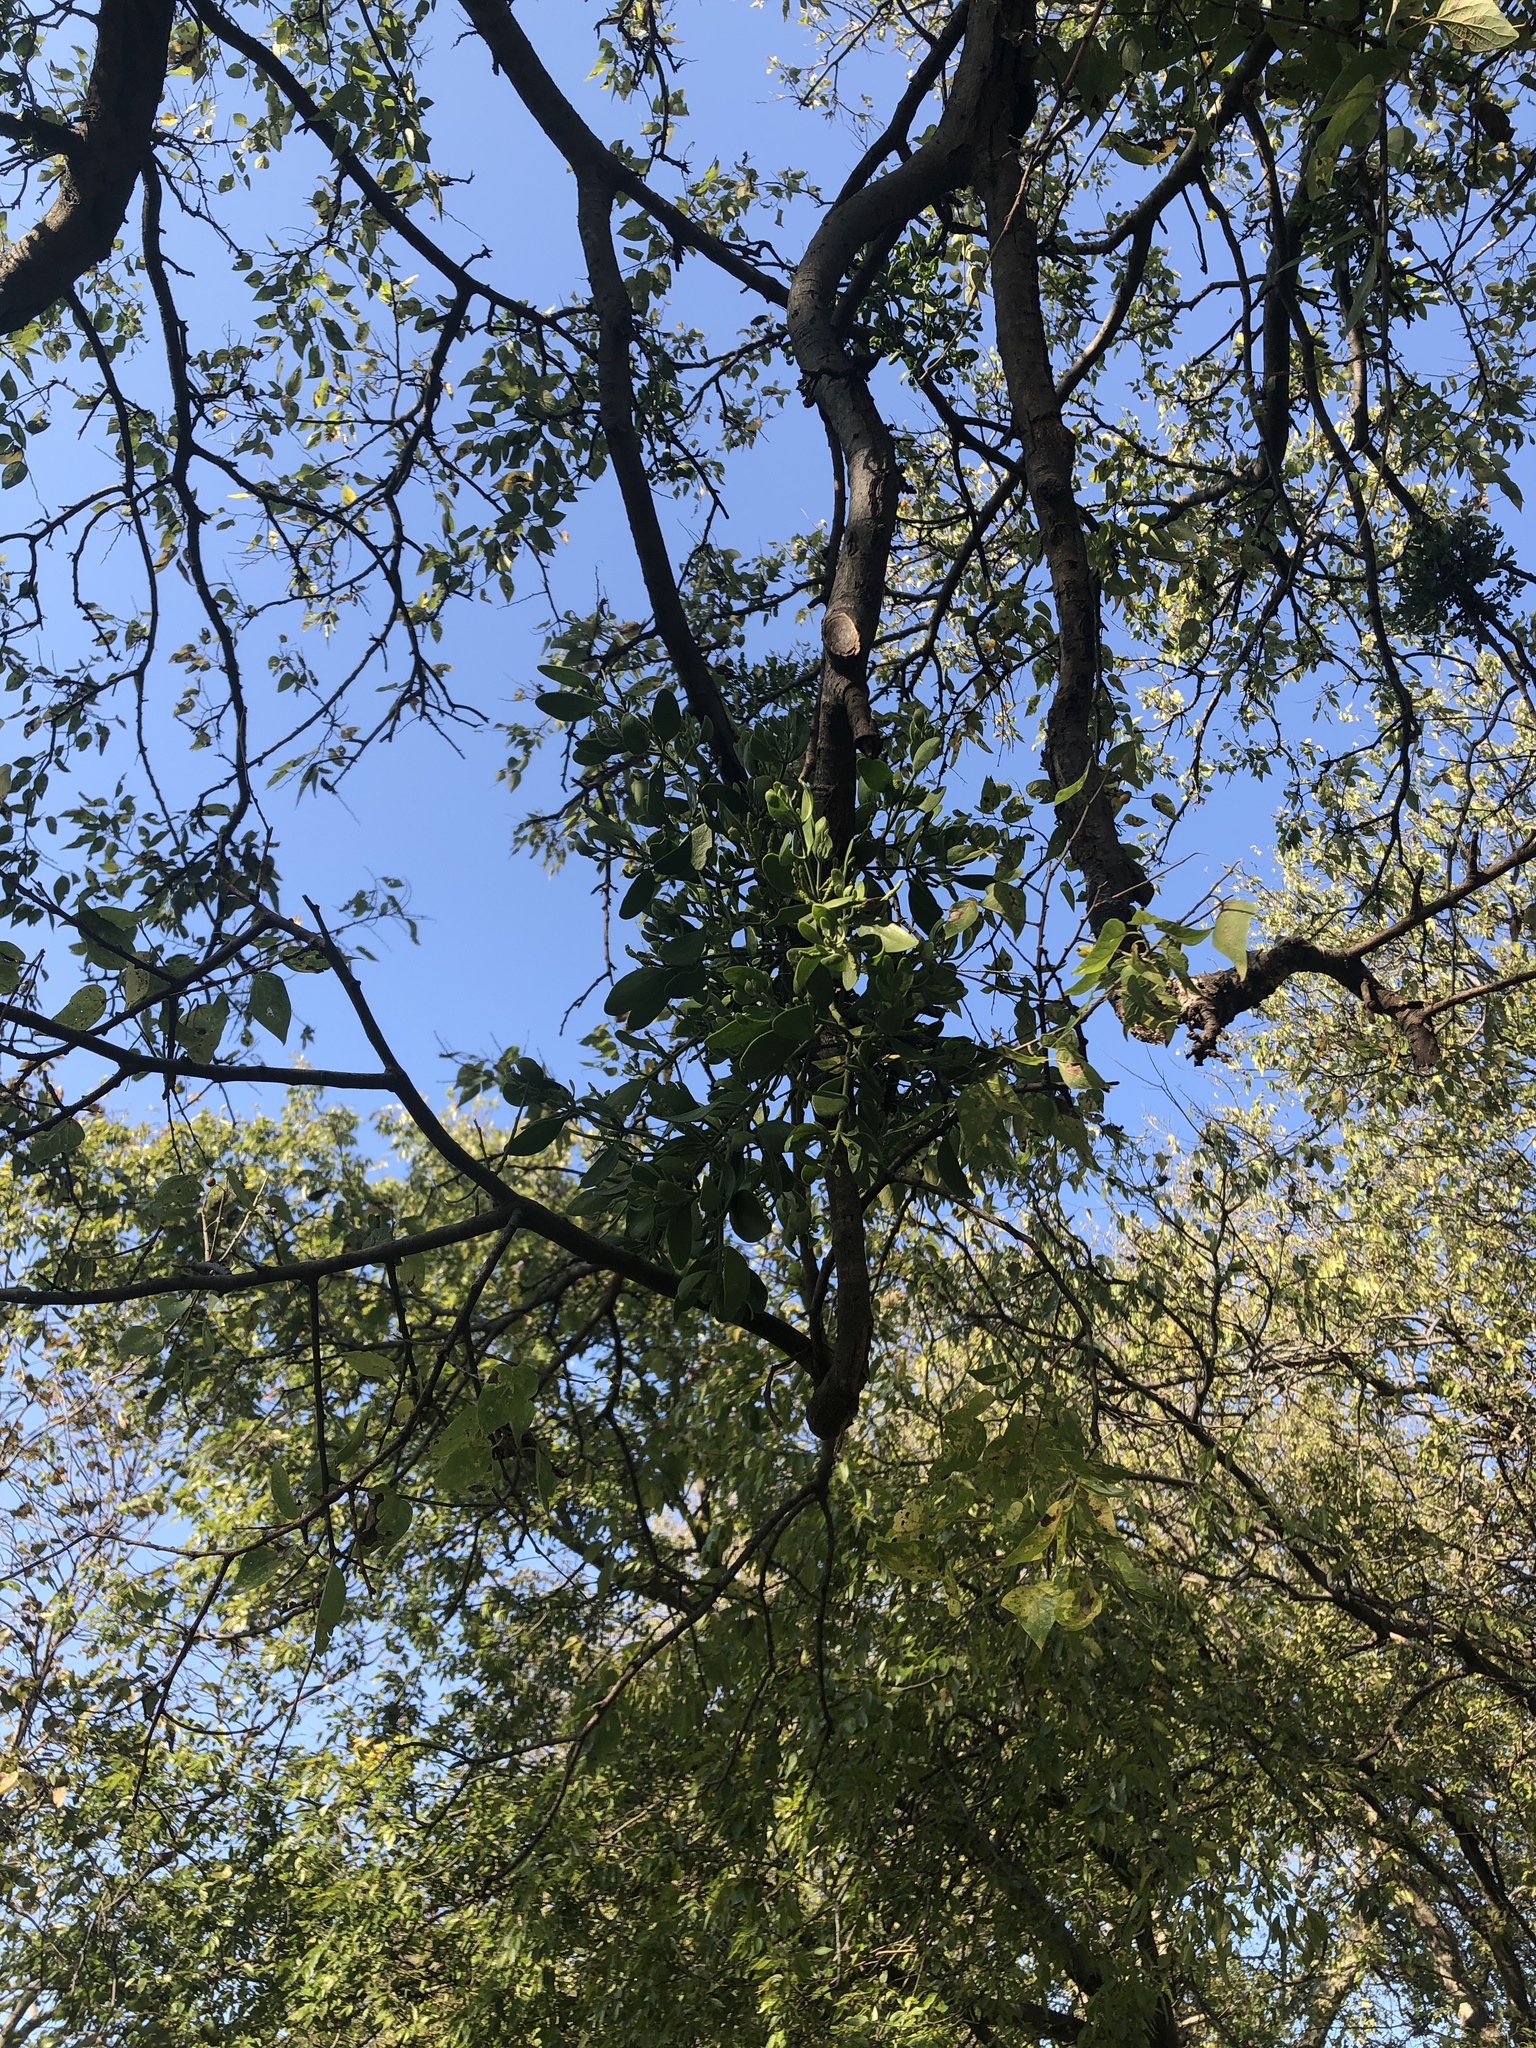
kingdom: Plantae
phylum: Tracheophyta
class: Magnoliopsida
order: Santalales
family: Viscaceae
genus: Phoradendron
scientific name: Phoradendron leucarpum
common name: Pacific mistletoe
